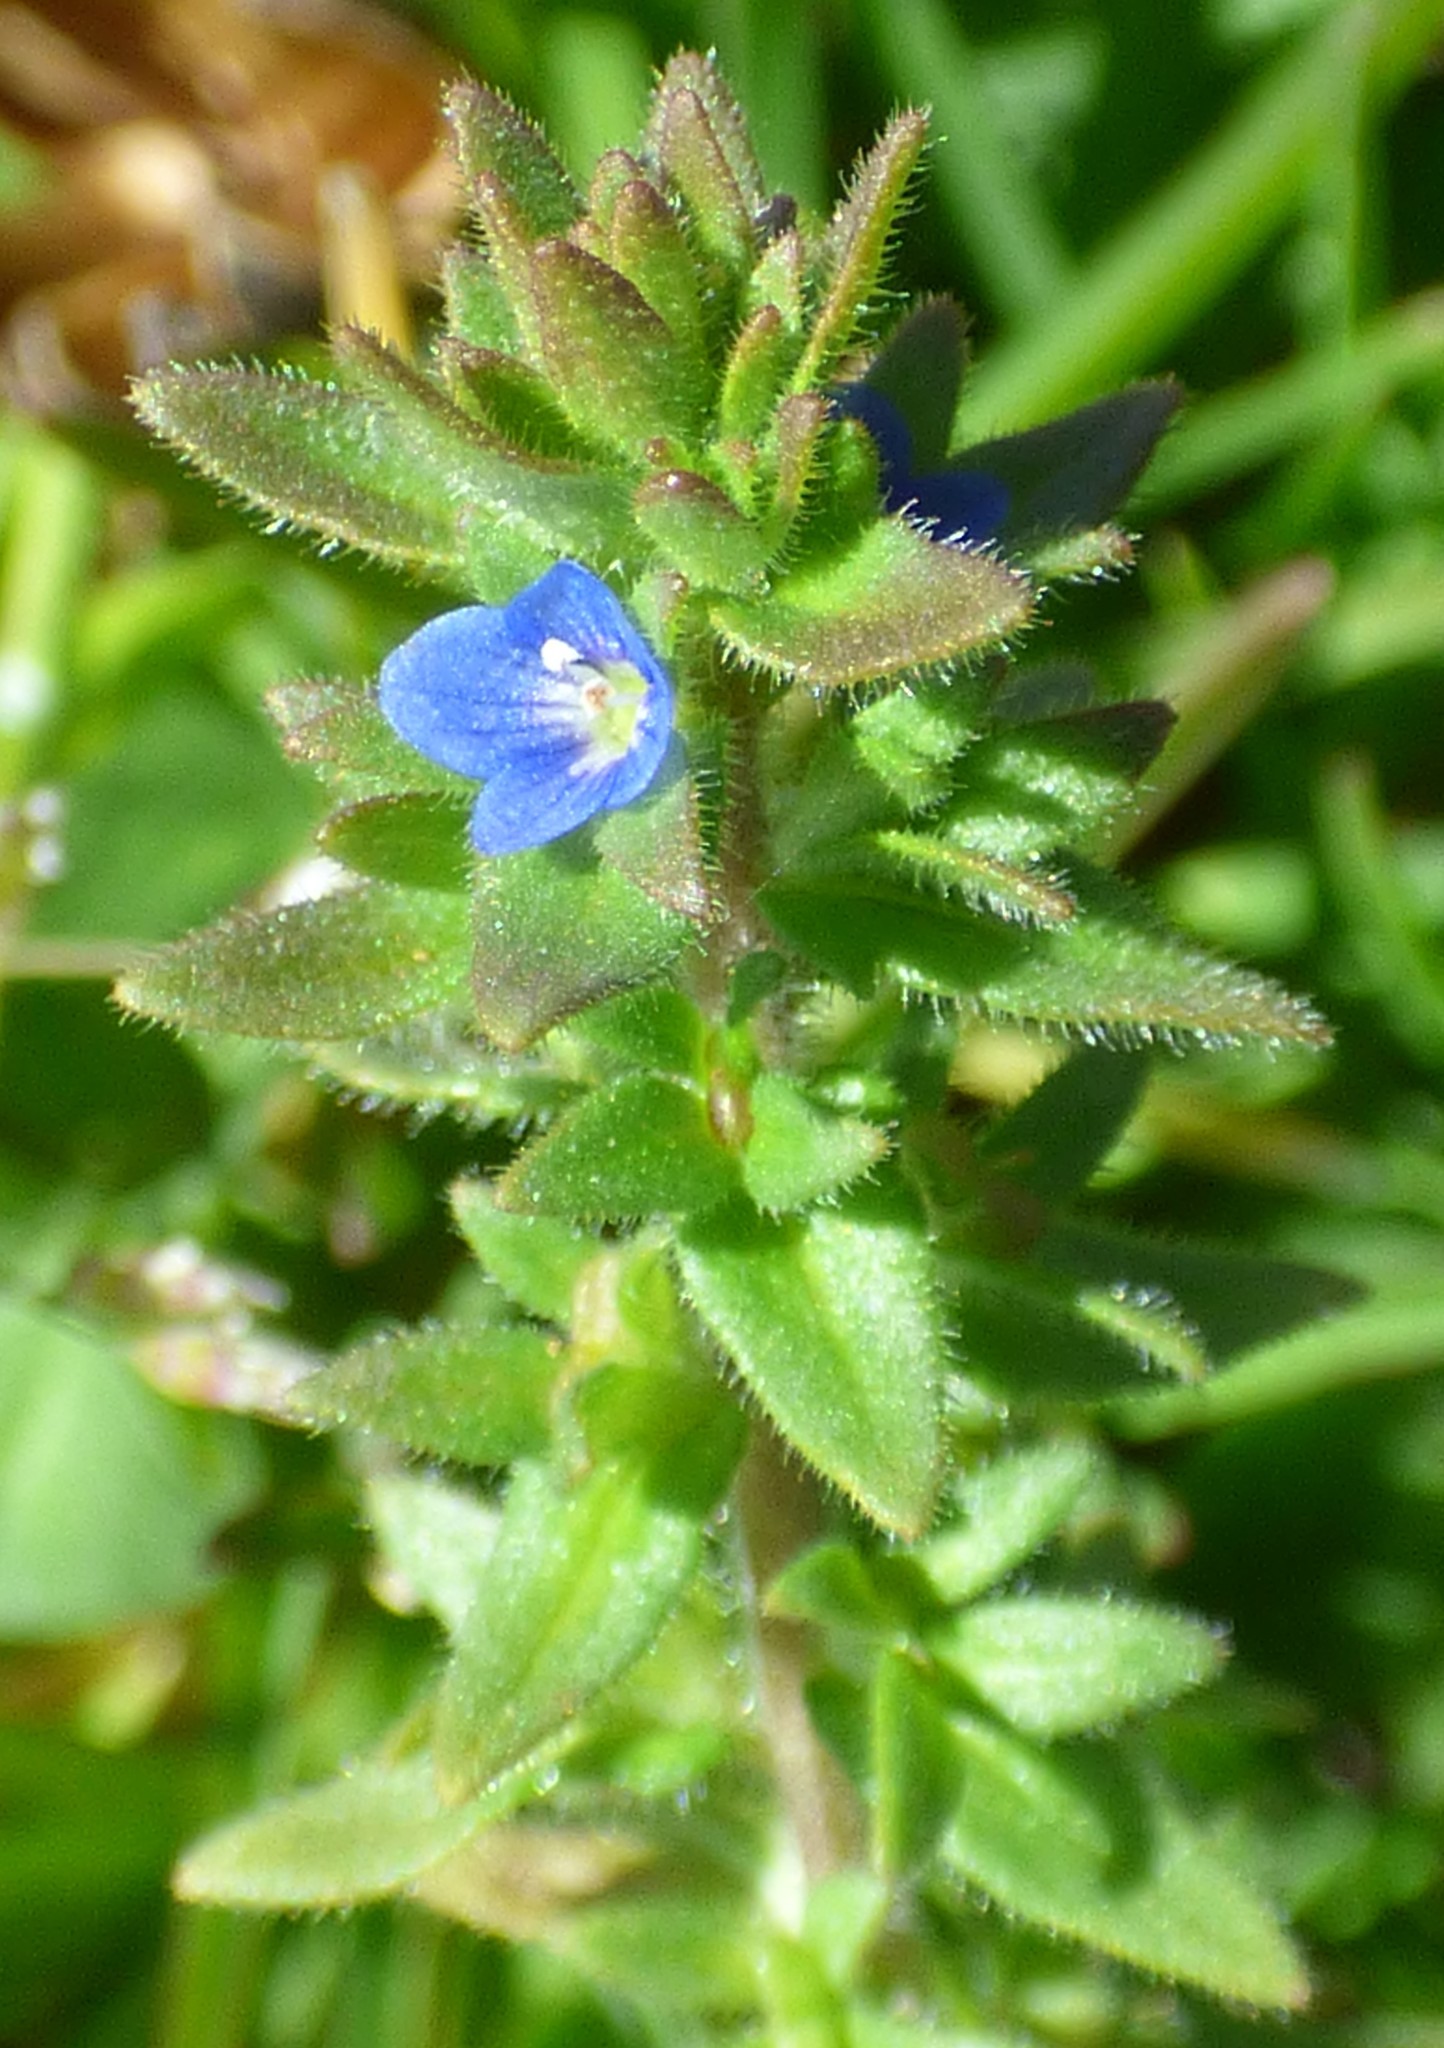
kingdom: Plantae
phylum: Tracheophyta
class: Magnoliopsida
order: Lamiales
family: Plantaginaceae
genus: Veronica
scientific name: Veronica arvensis
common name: Corn speedwell
